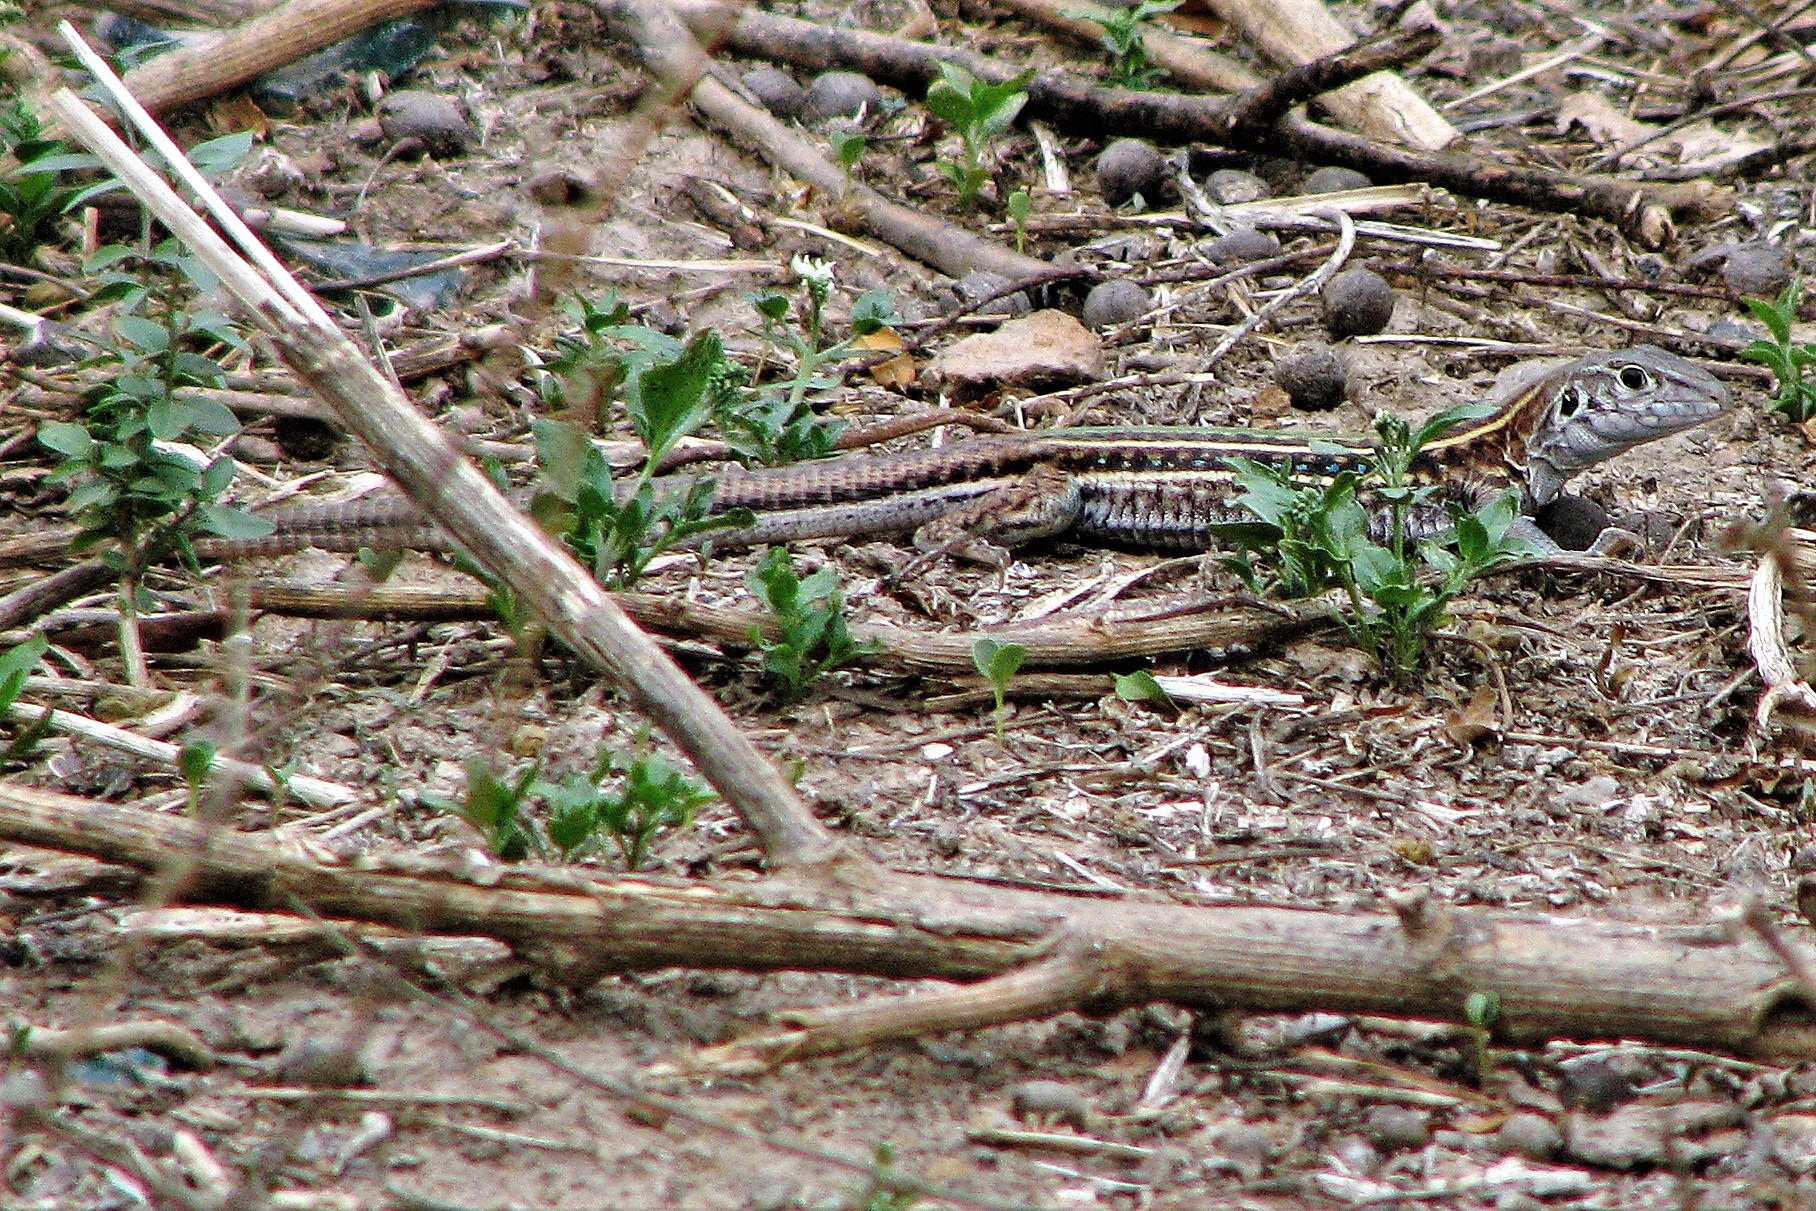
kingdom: Animalia
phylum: Chordata
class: Squamata
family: Teiidae
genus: Teius
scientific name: Teius teyou
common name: Four-toed tegu
